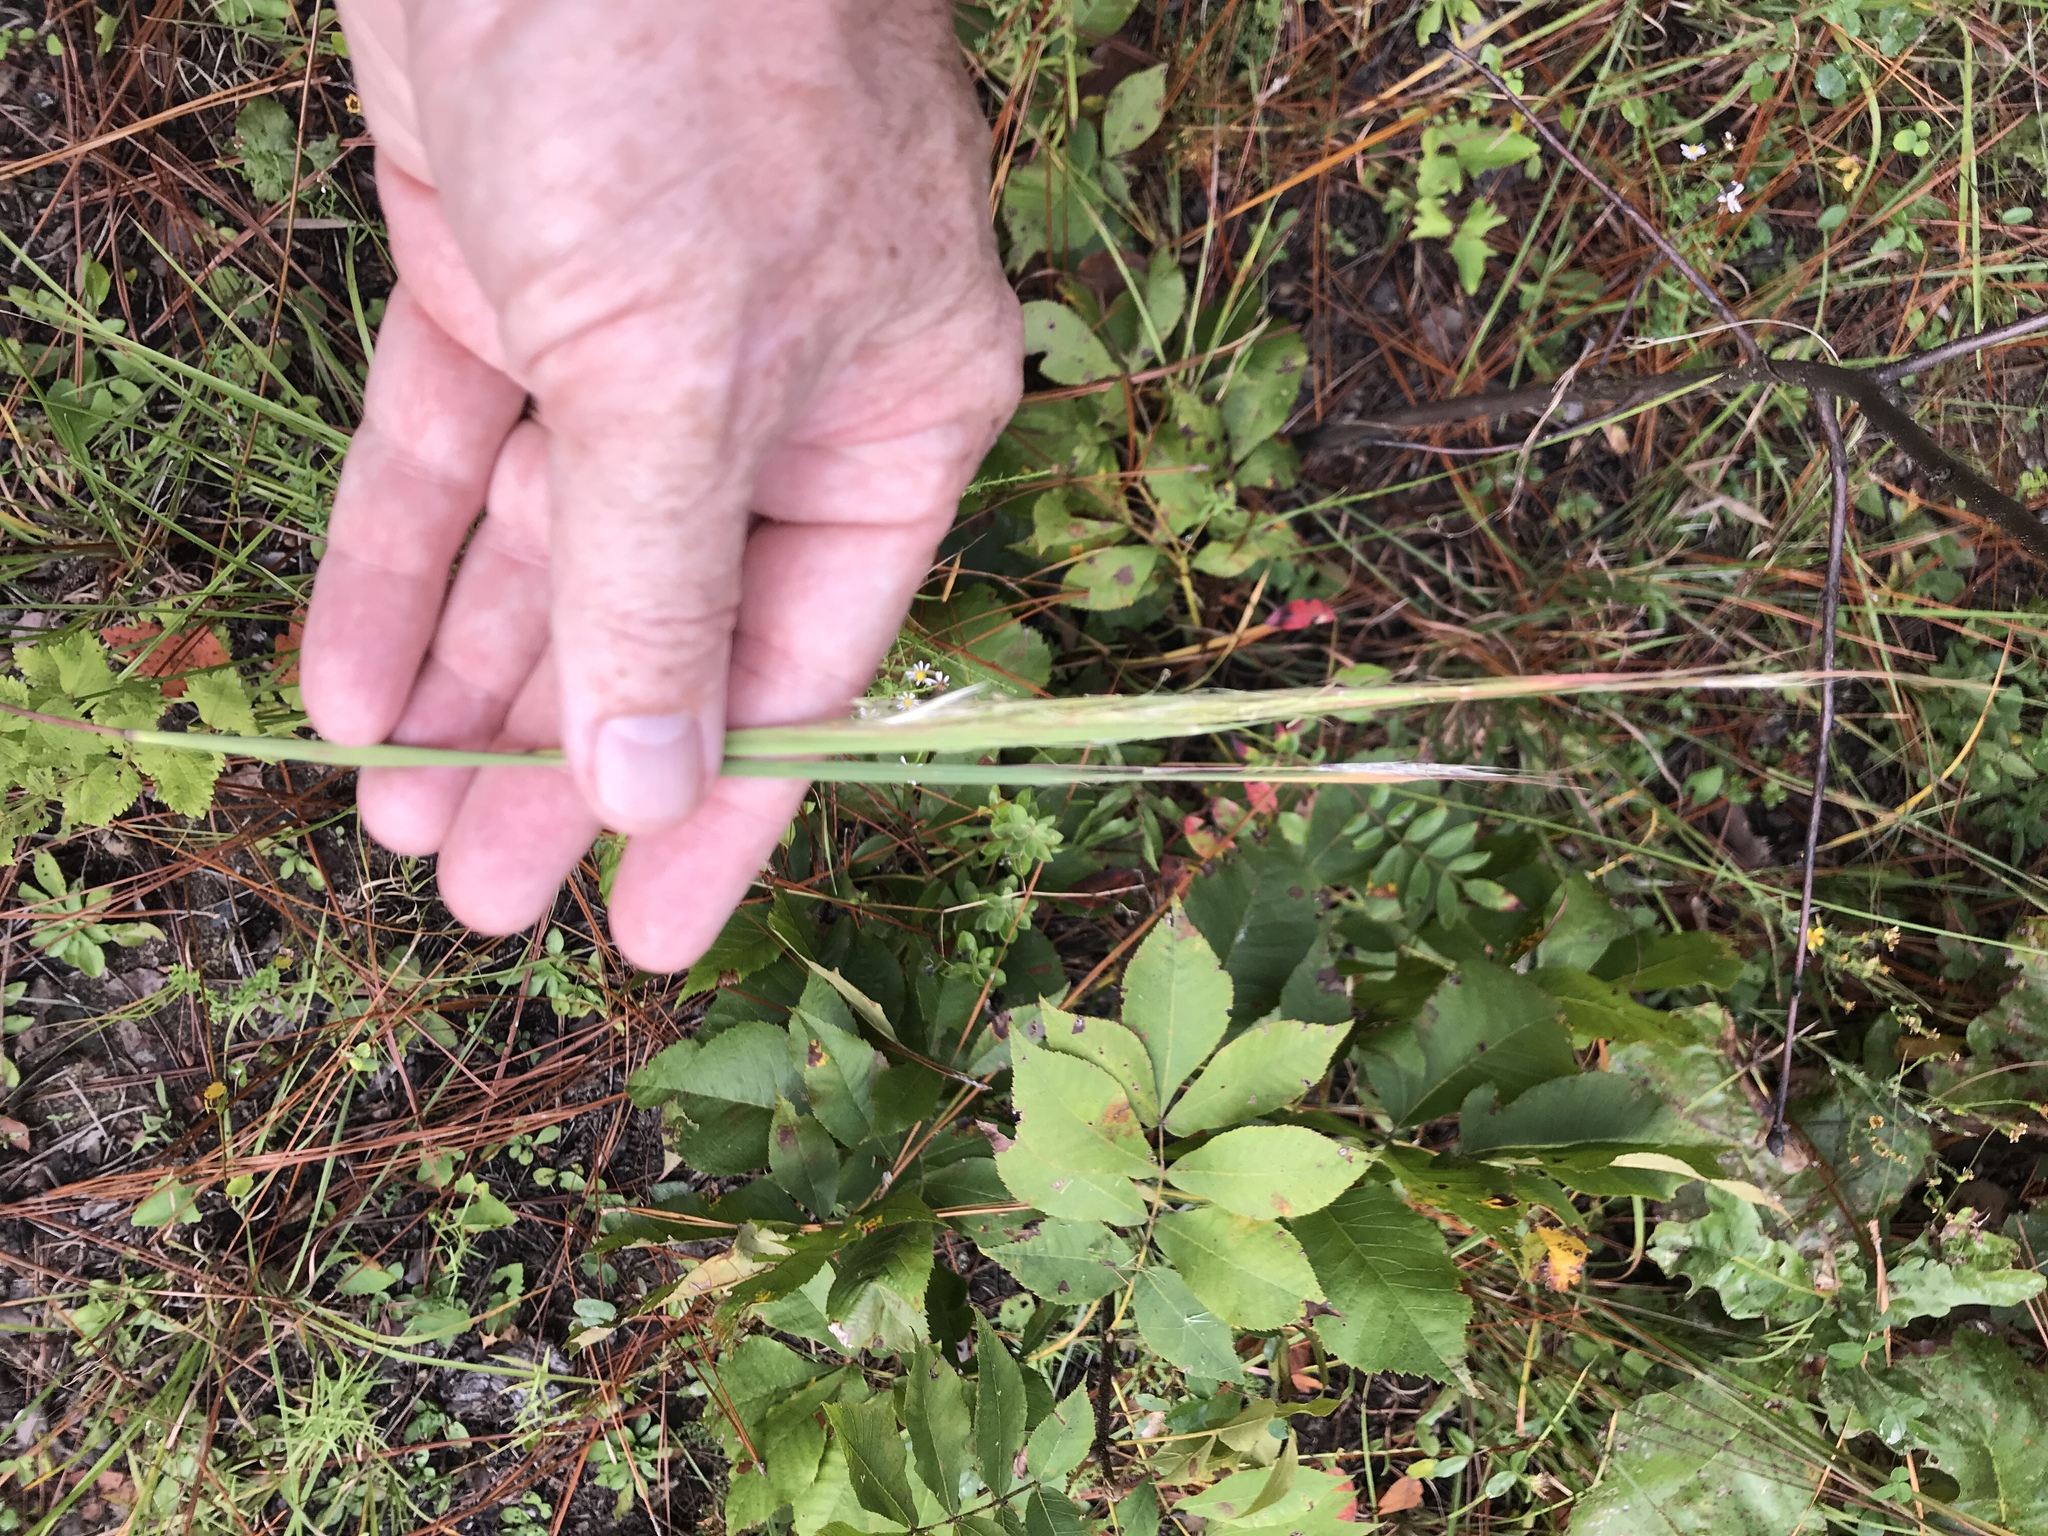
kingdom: Plantae
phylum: Tracheophyta
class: Liliopsida
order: Poales
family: Poaceae
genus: Andropogon
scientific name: Andropogon gyrans
